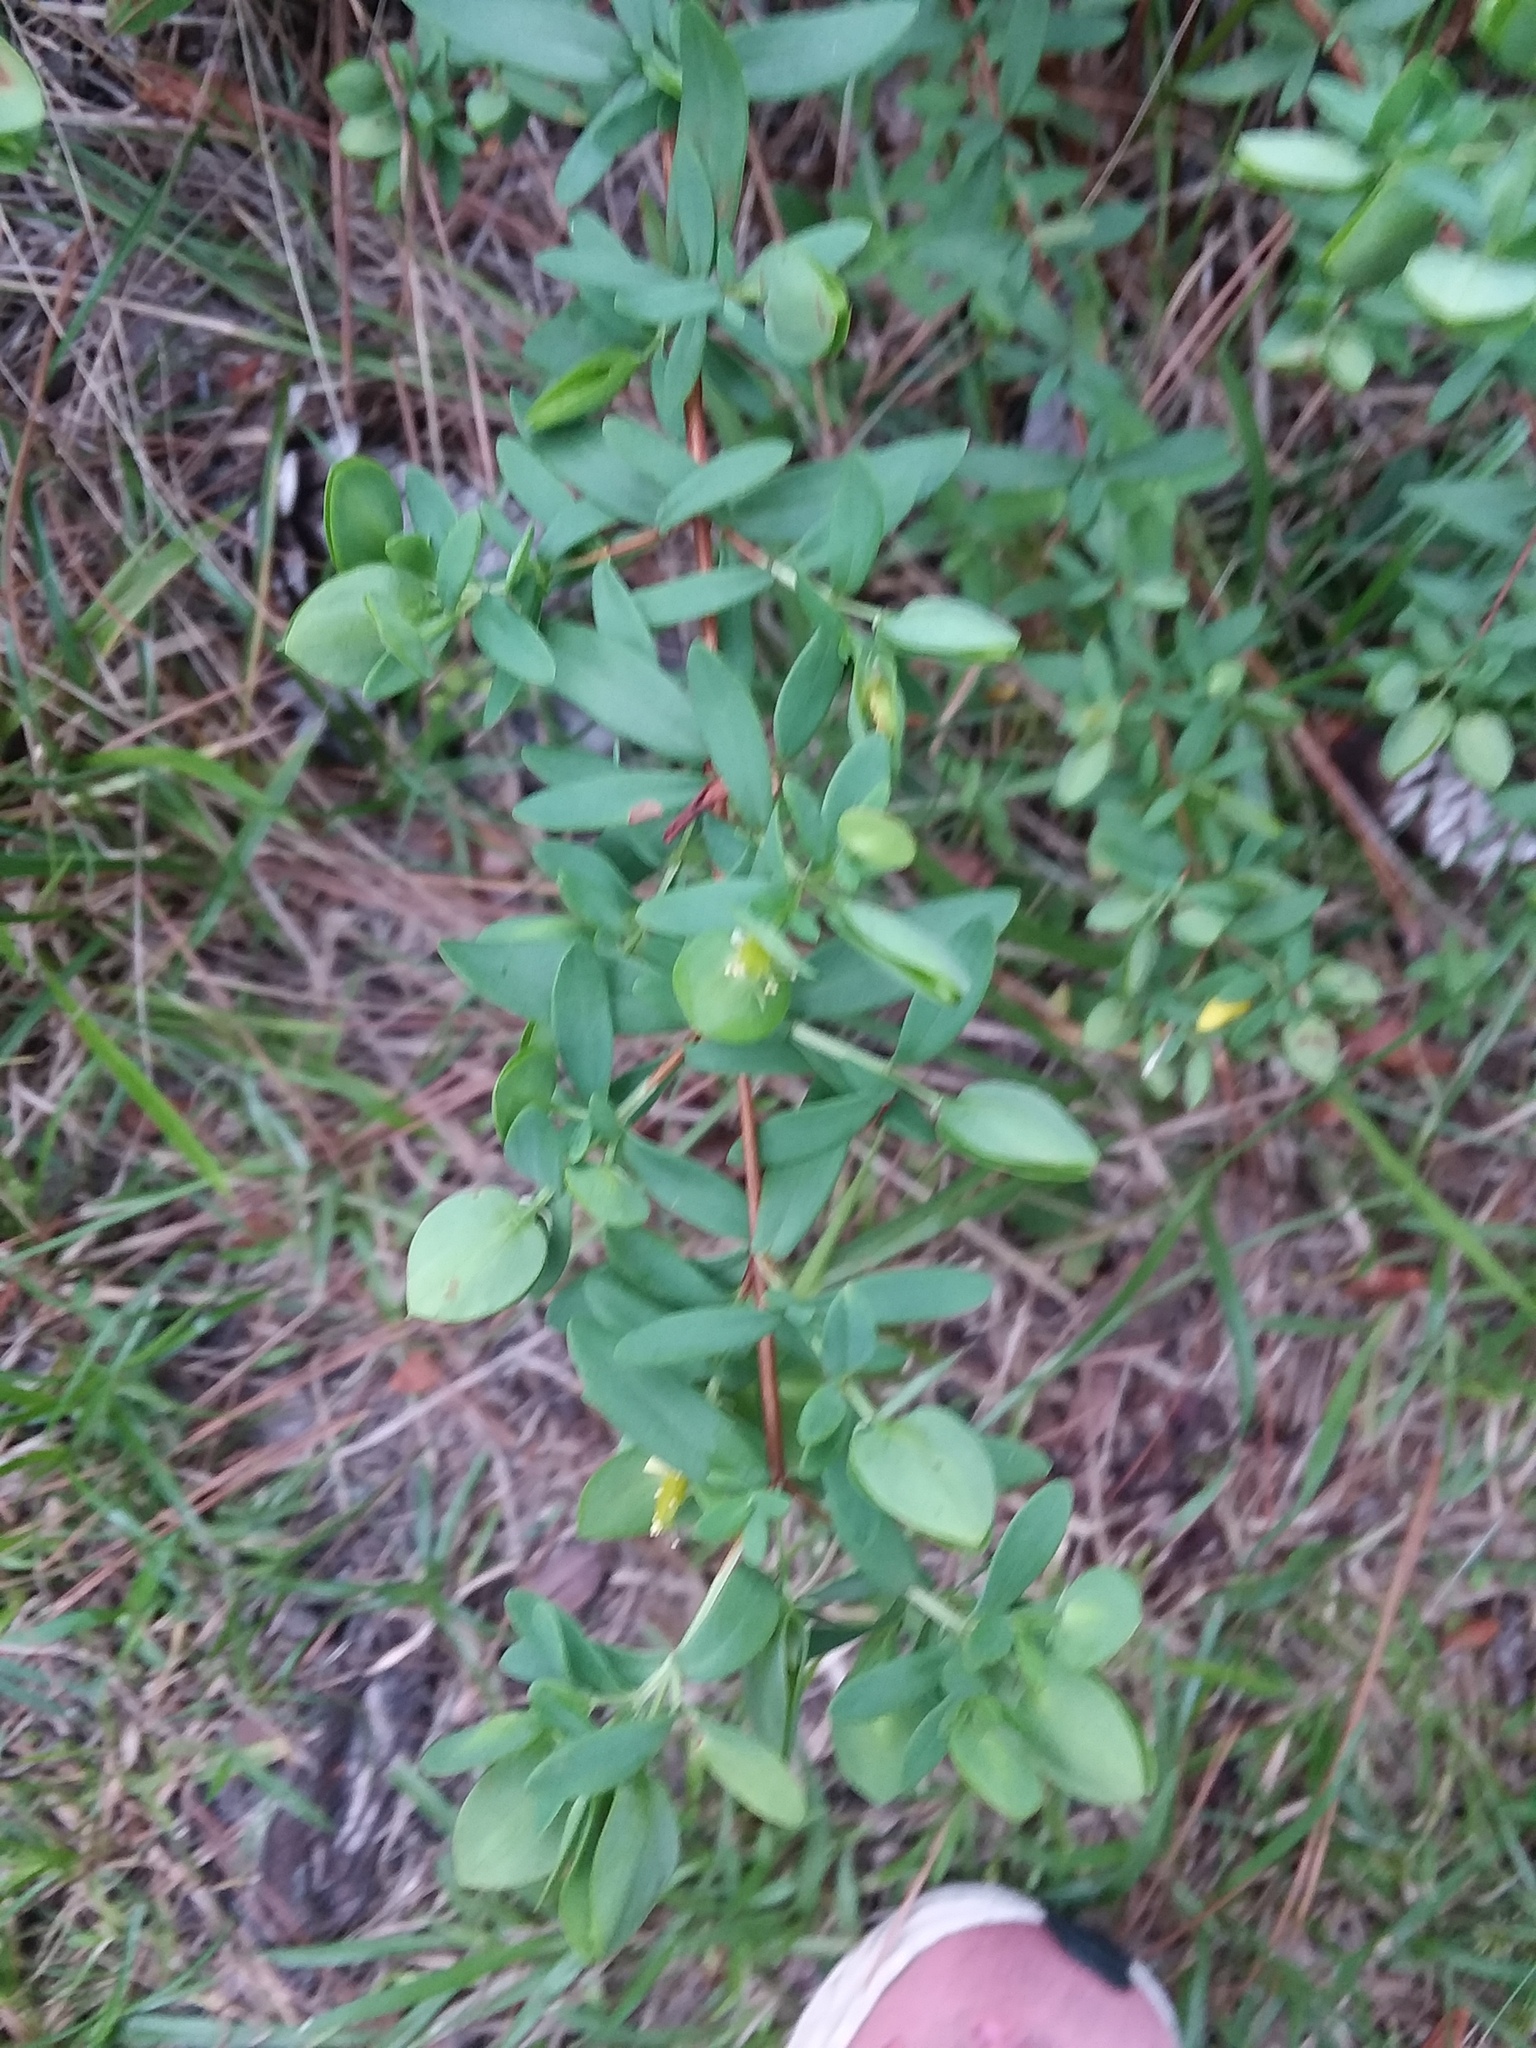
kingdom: Plantae
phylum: Tracheophyta
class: Magnoliopsida
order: Malpighiales
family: Hypericaceae
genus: Hypericum
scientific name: Hypericum hypericoides
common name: St. andrew's cross
